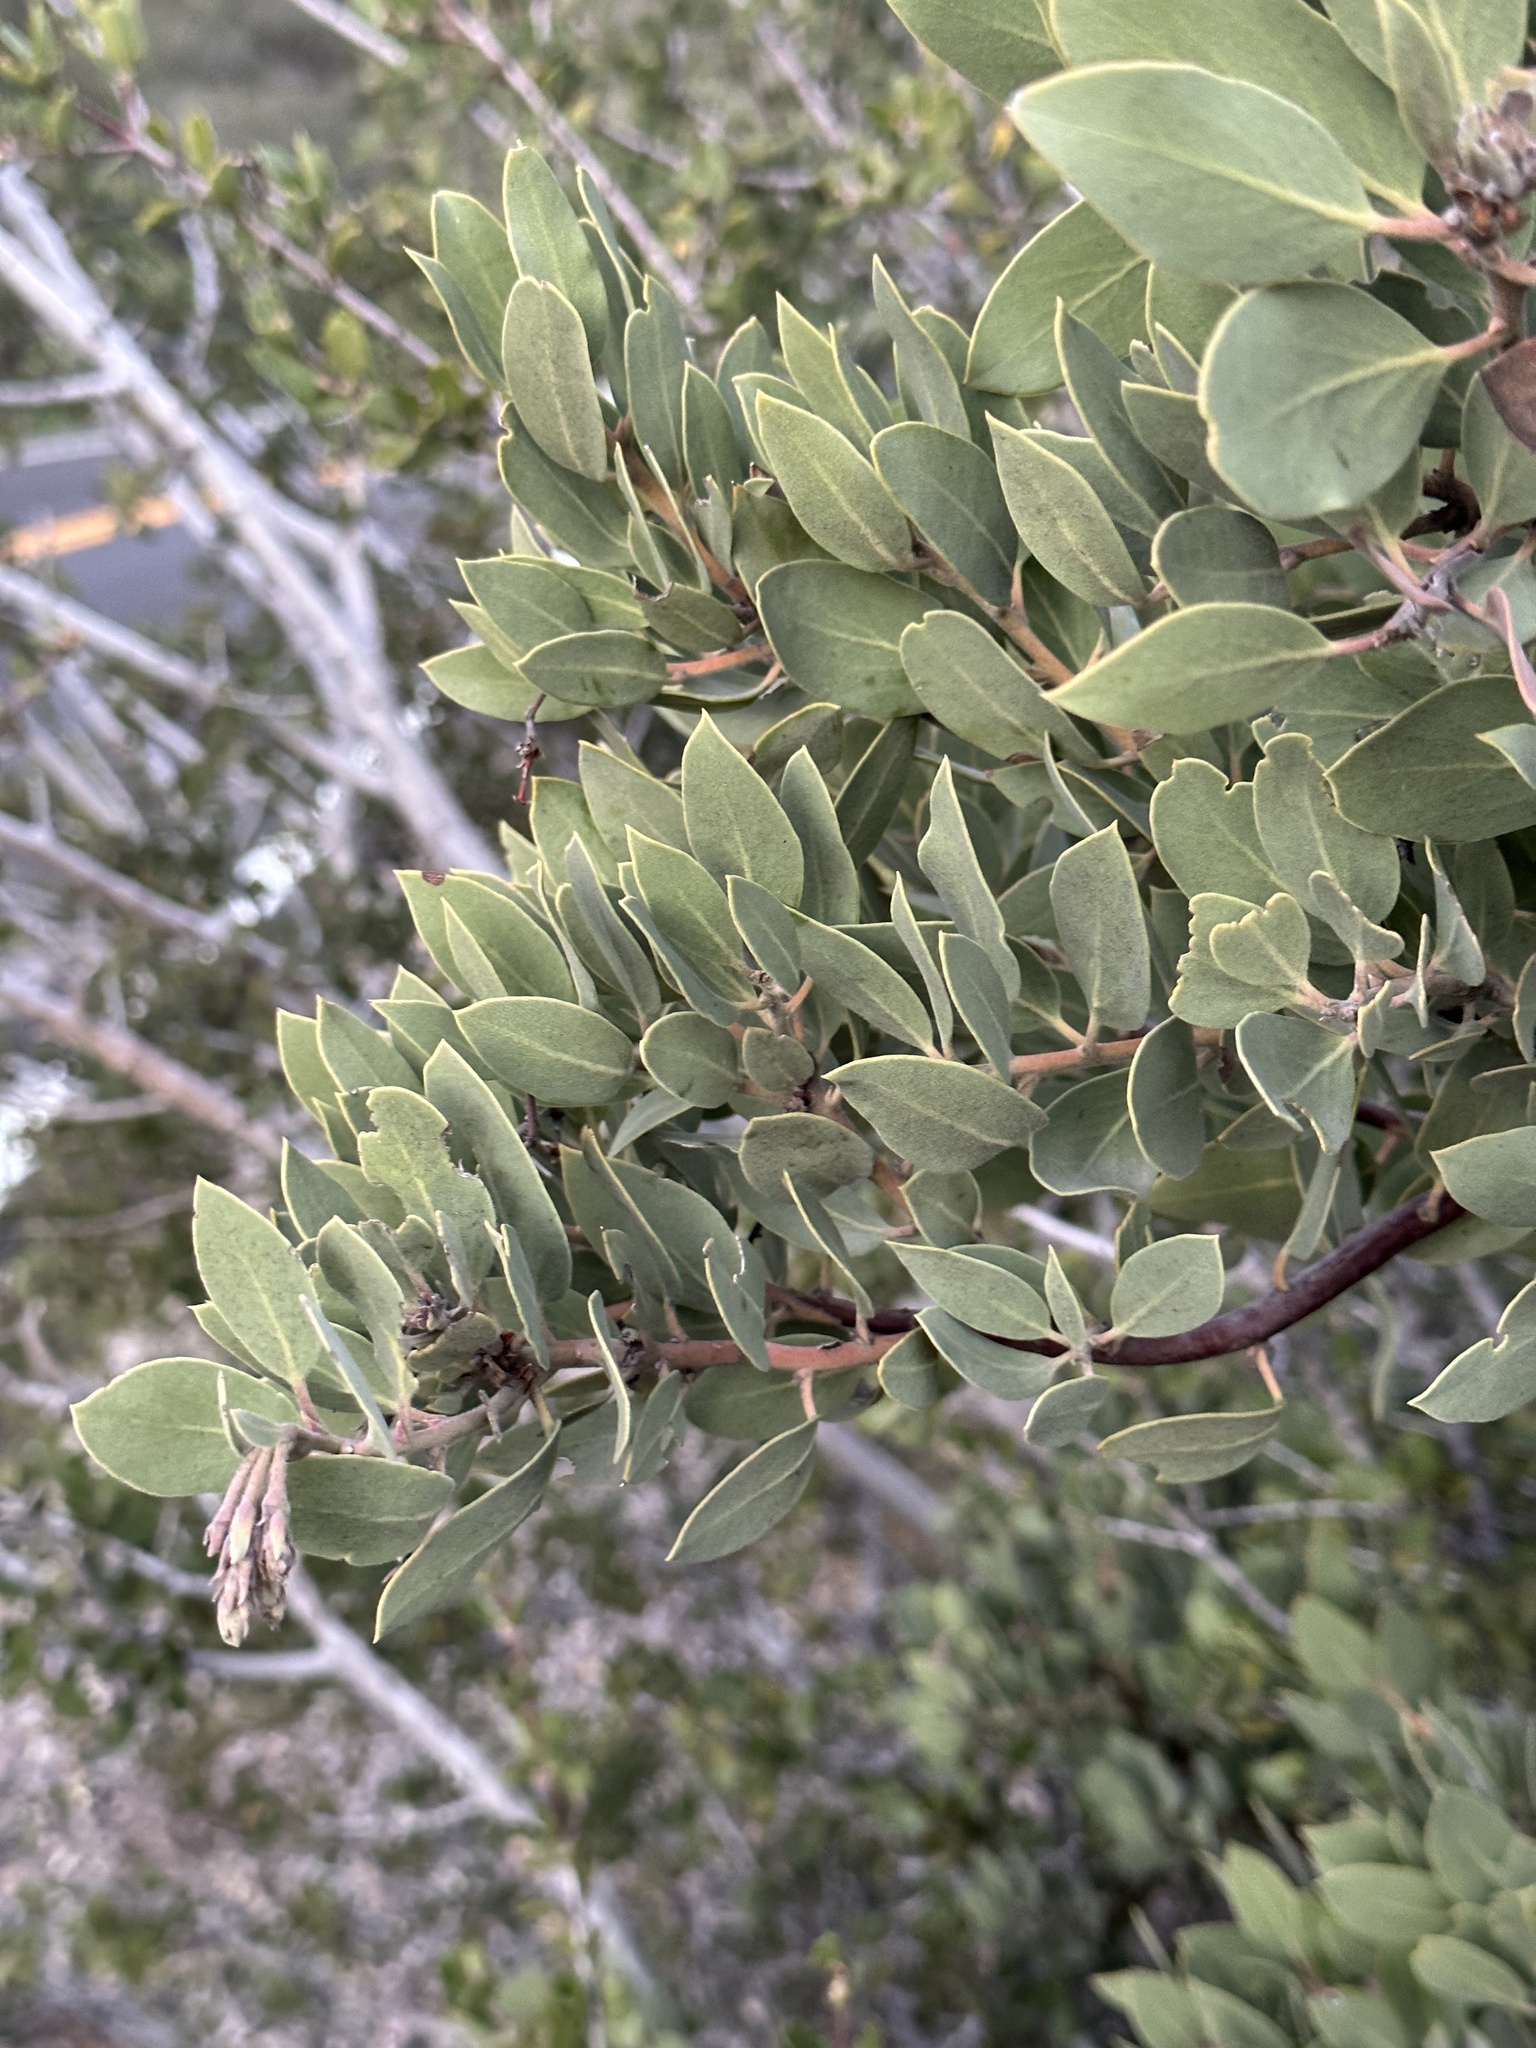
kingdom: Plantae
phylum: Tracheophyta
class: Magnoliopsida
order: Ericales
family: Ericaceae
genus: Arctostaphylos
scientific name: Arctostaphylos glandulosa
